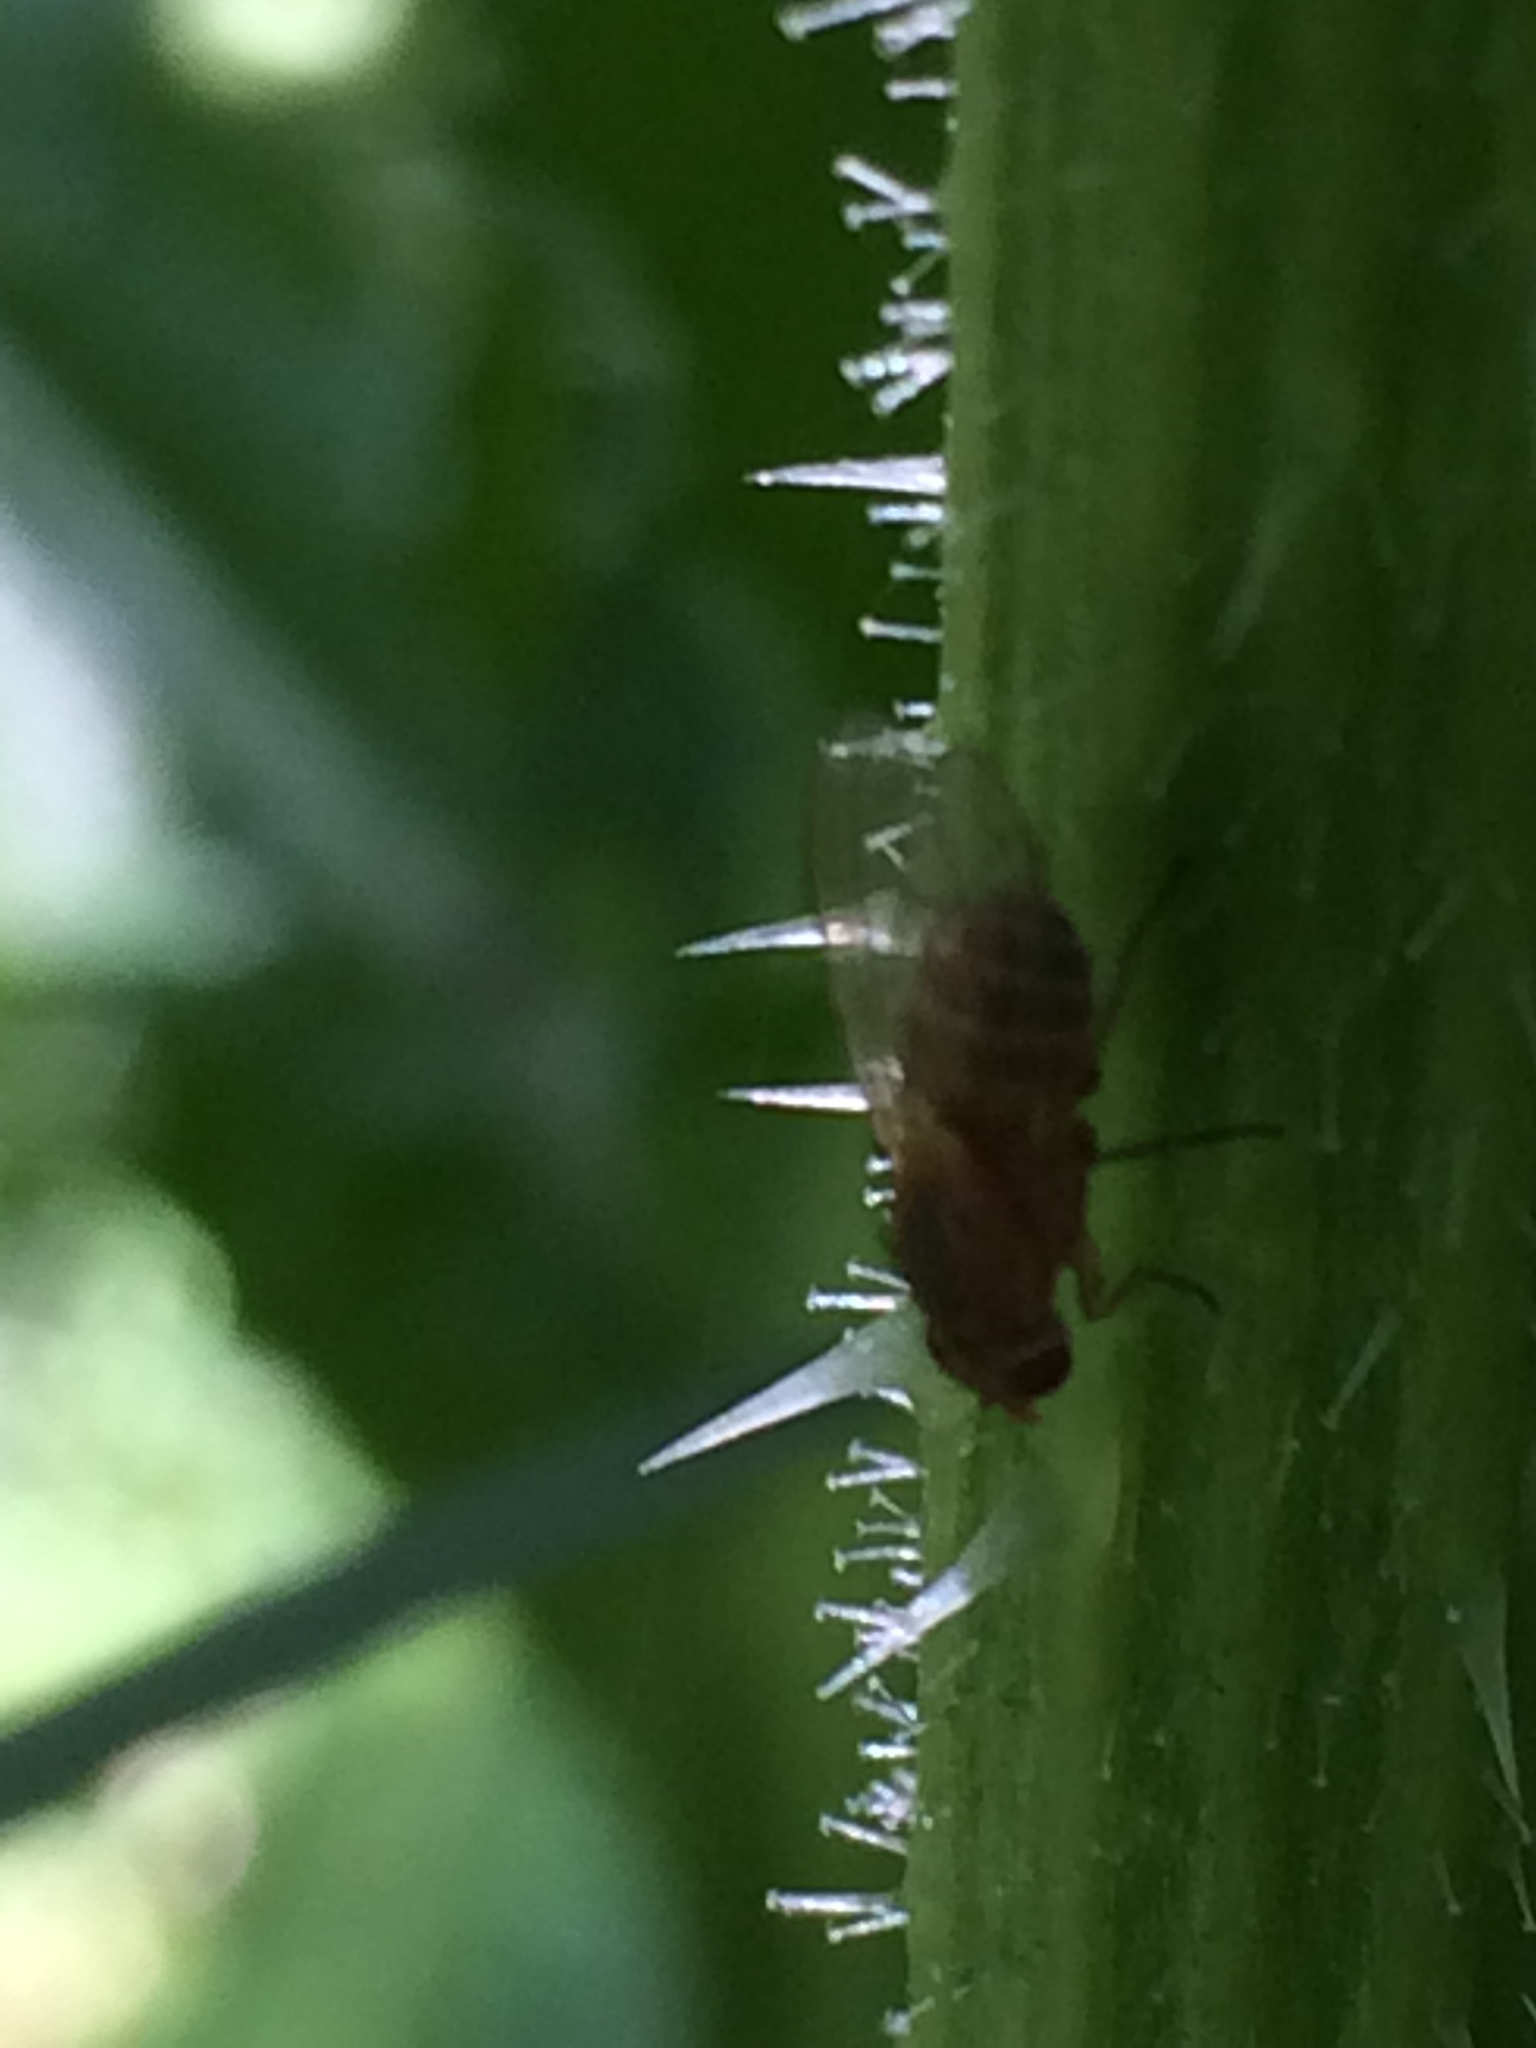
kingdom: Animalia
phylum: Arthropoda
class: Insecta
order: Diptera
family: Lauxaniidae
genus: Minettia
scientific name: Minettia flaveola
